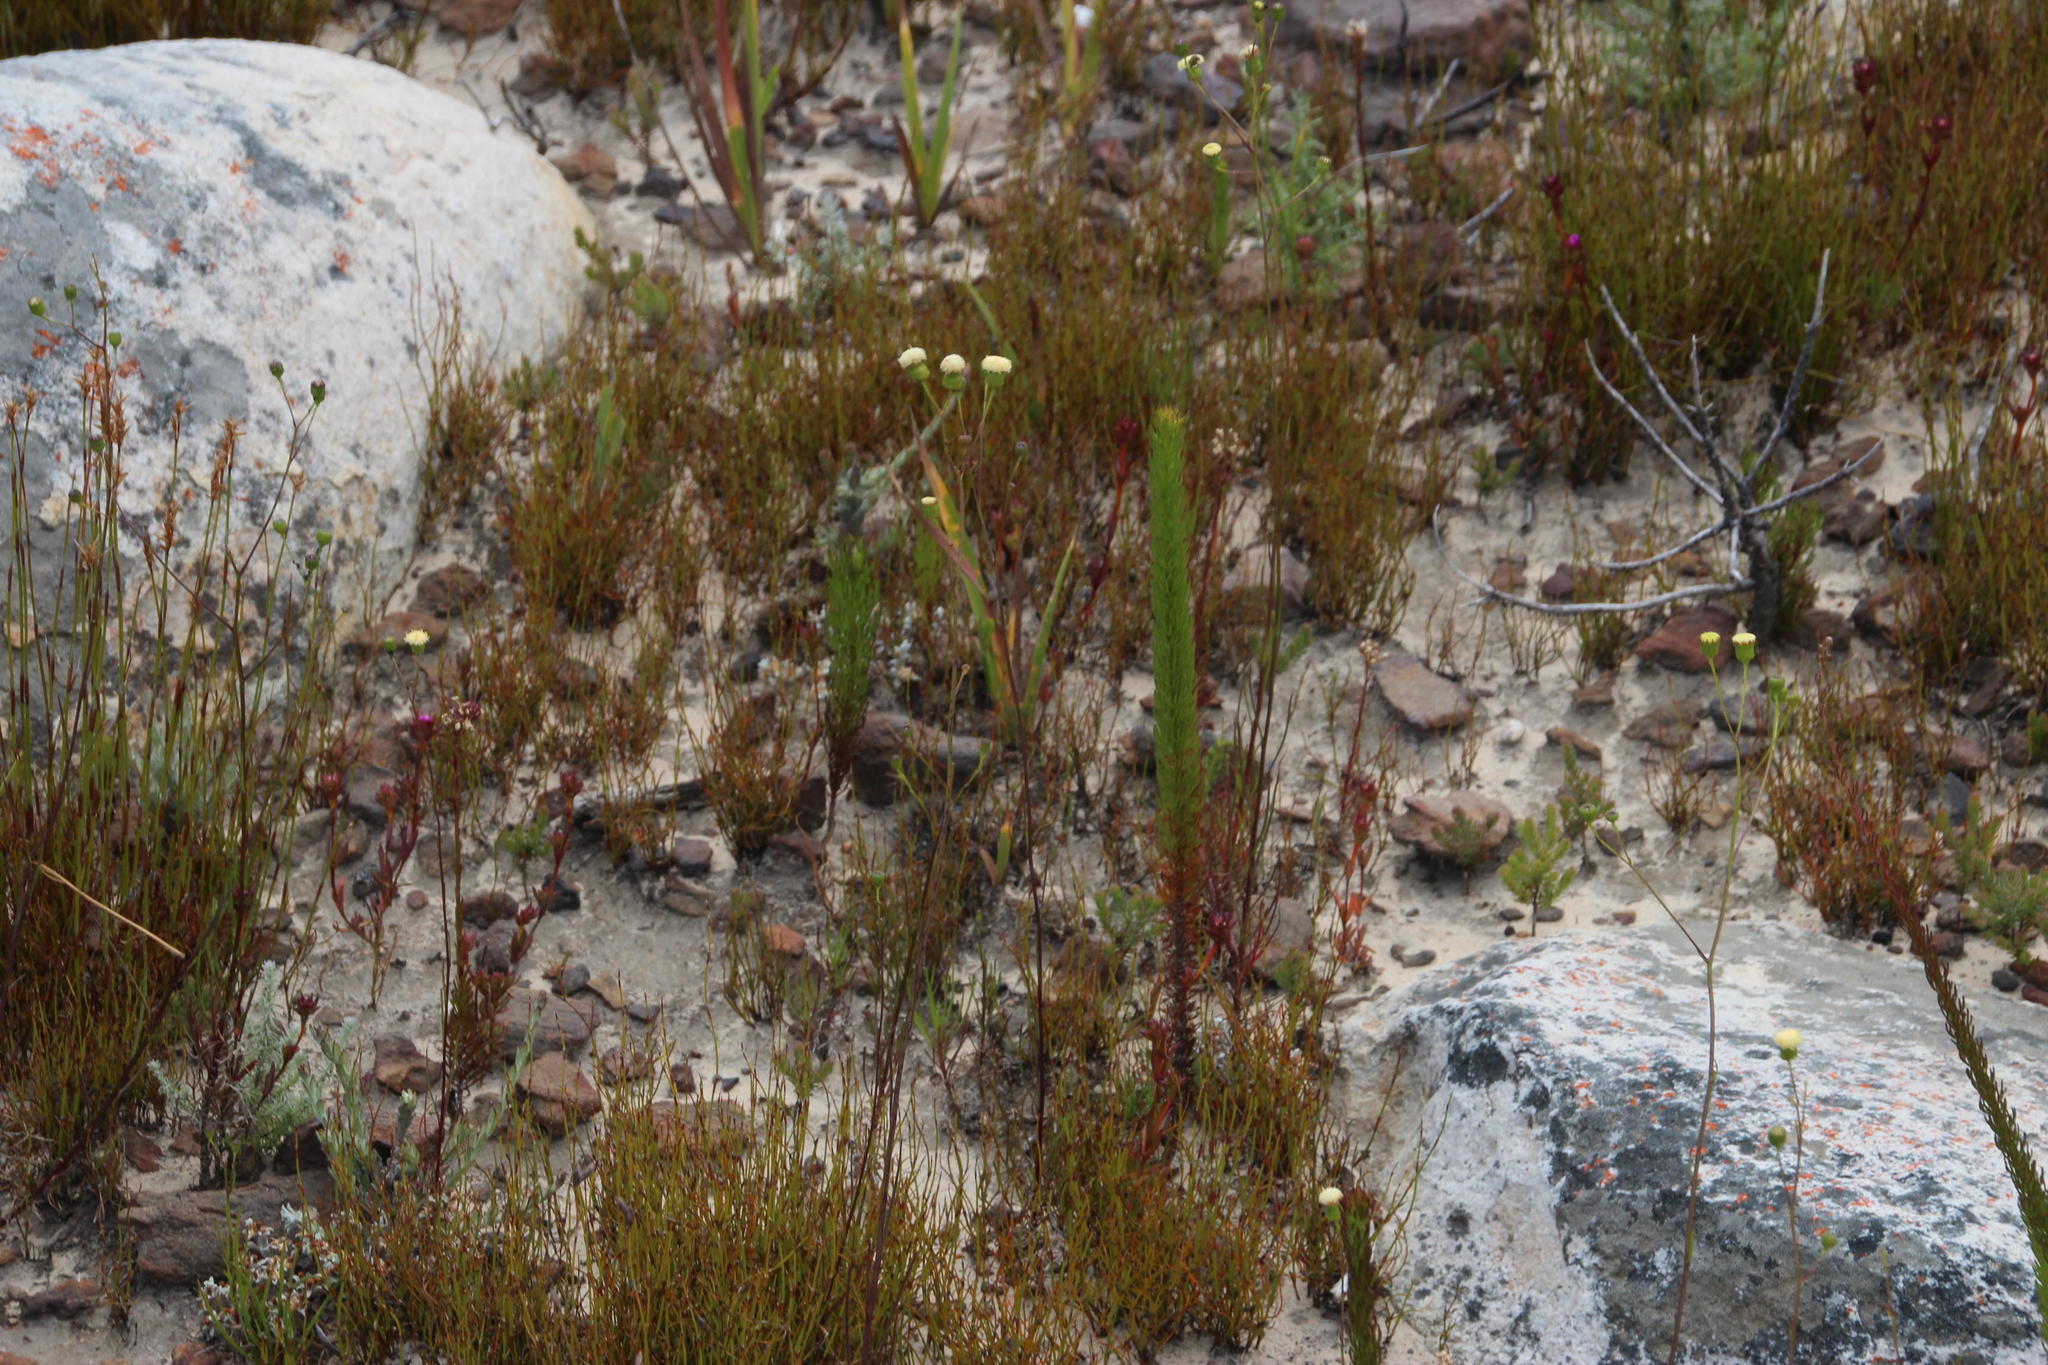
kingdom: Plantae
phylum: Tracheophyta
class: Magnoliopsida
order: Asterales
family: Asteraceae
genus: Senecio
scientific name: Senecio paniculatus
